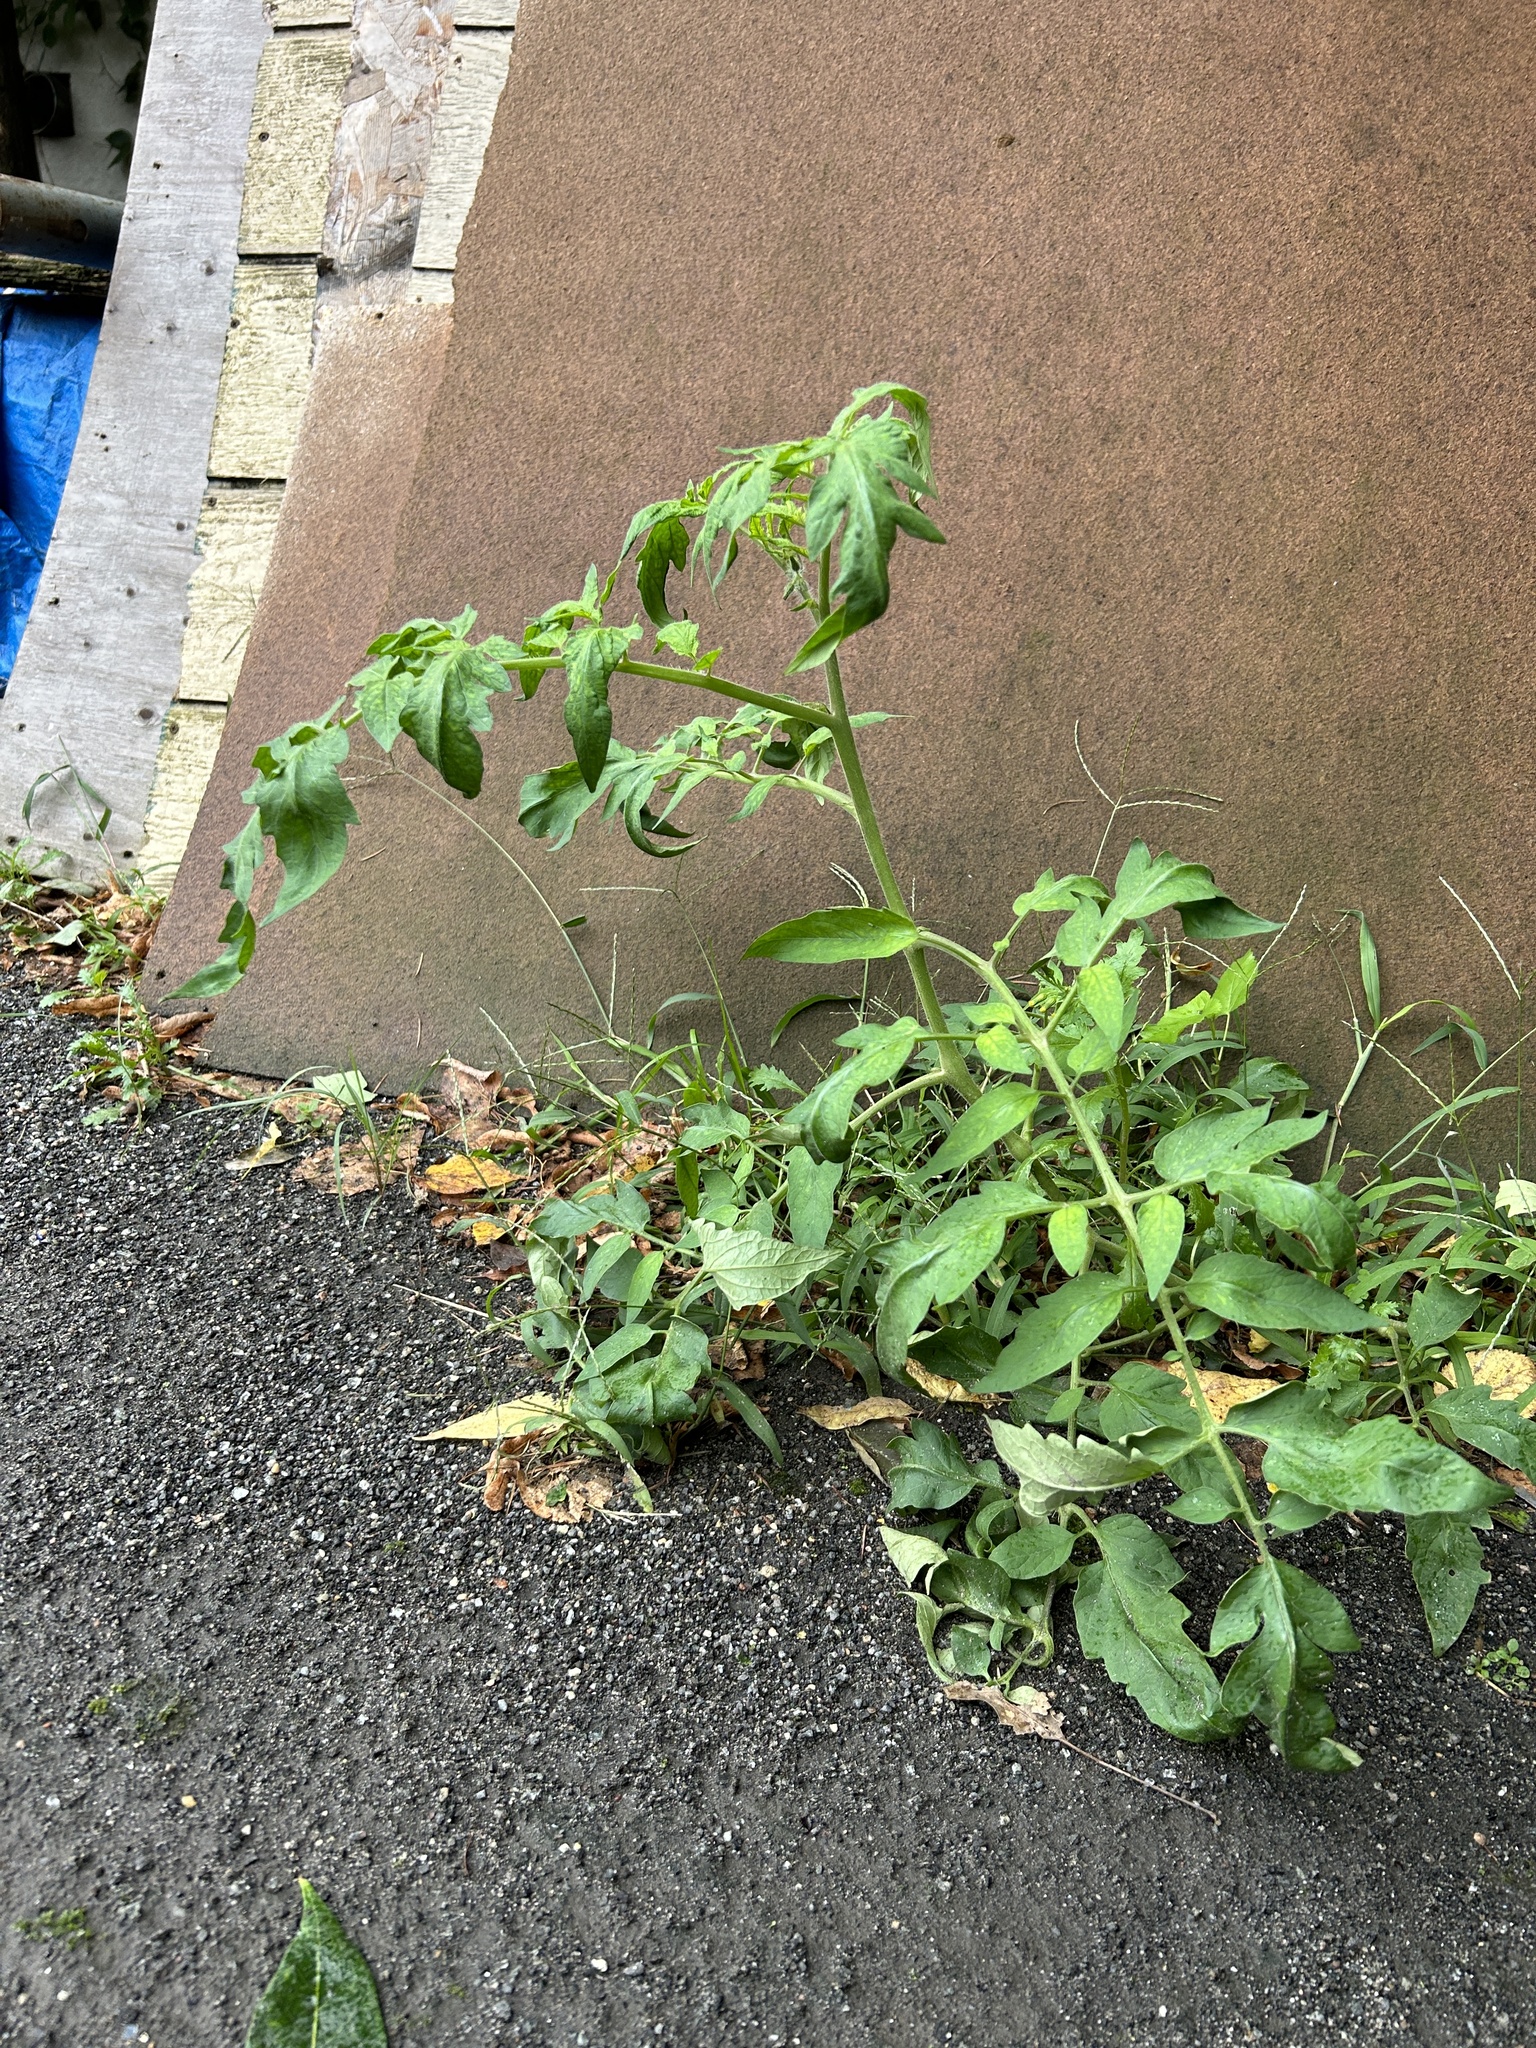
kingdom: Plantae
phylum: Tracheophyta
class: Magnoliopsida
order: Solanales
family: Solanaceae
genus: Solanum
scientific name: Solanum lycopersicum
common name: Garden tomato
